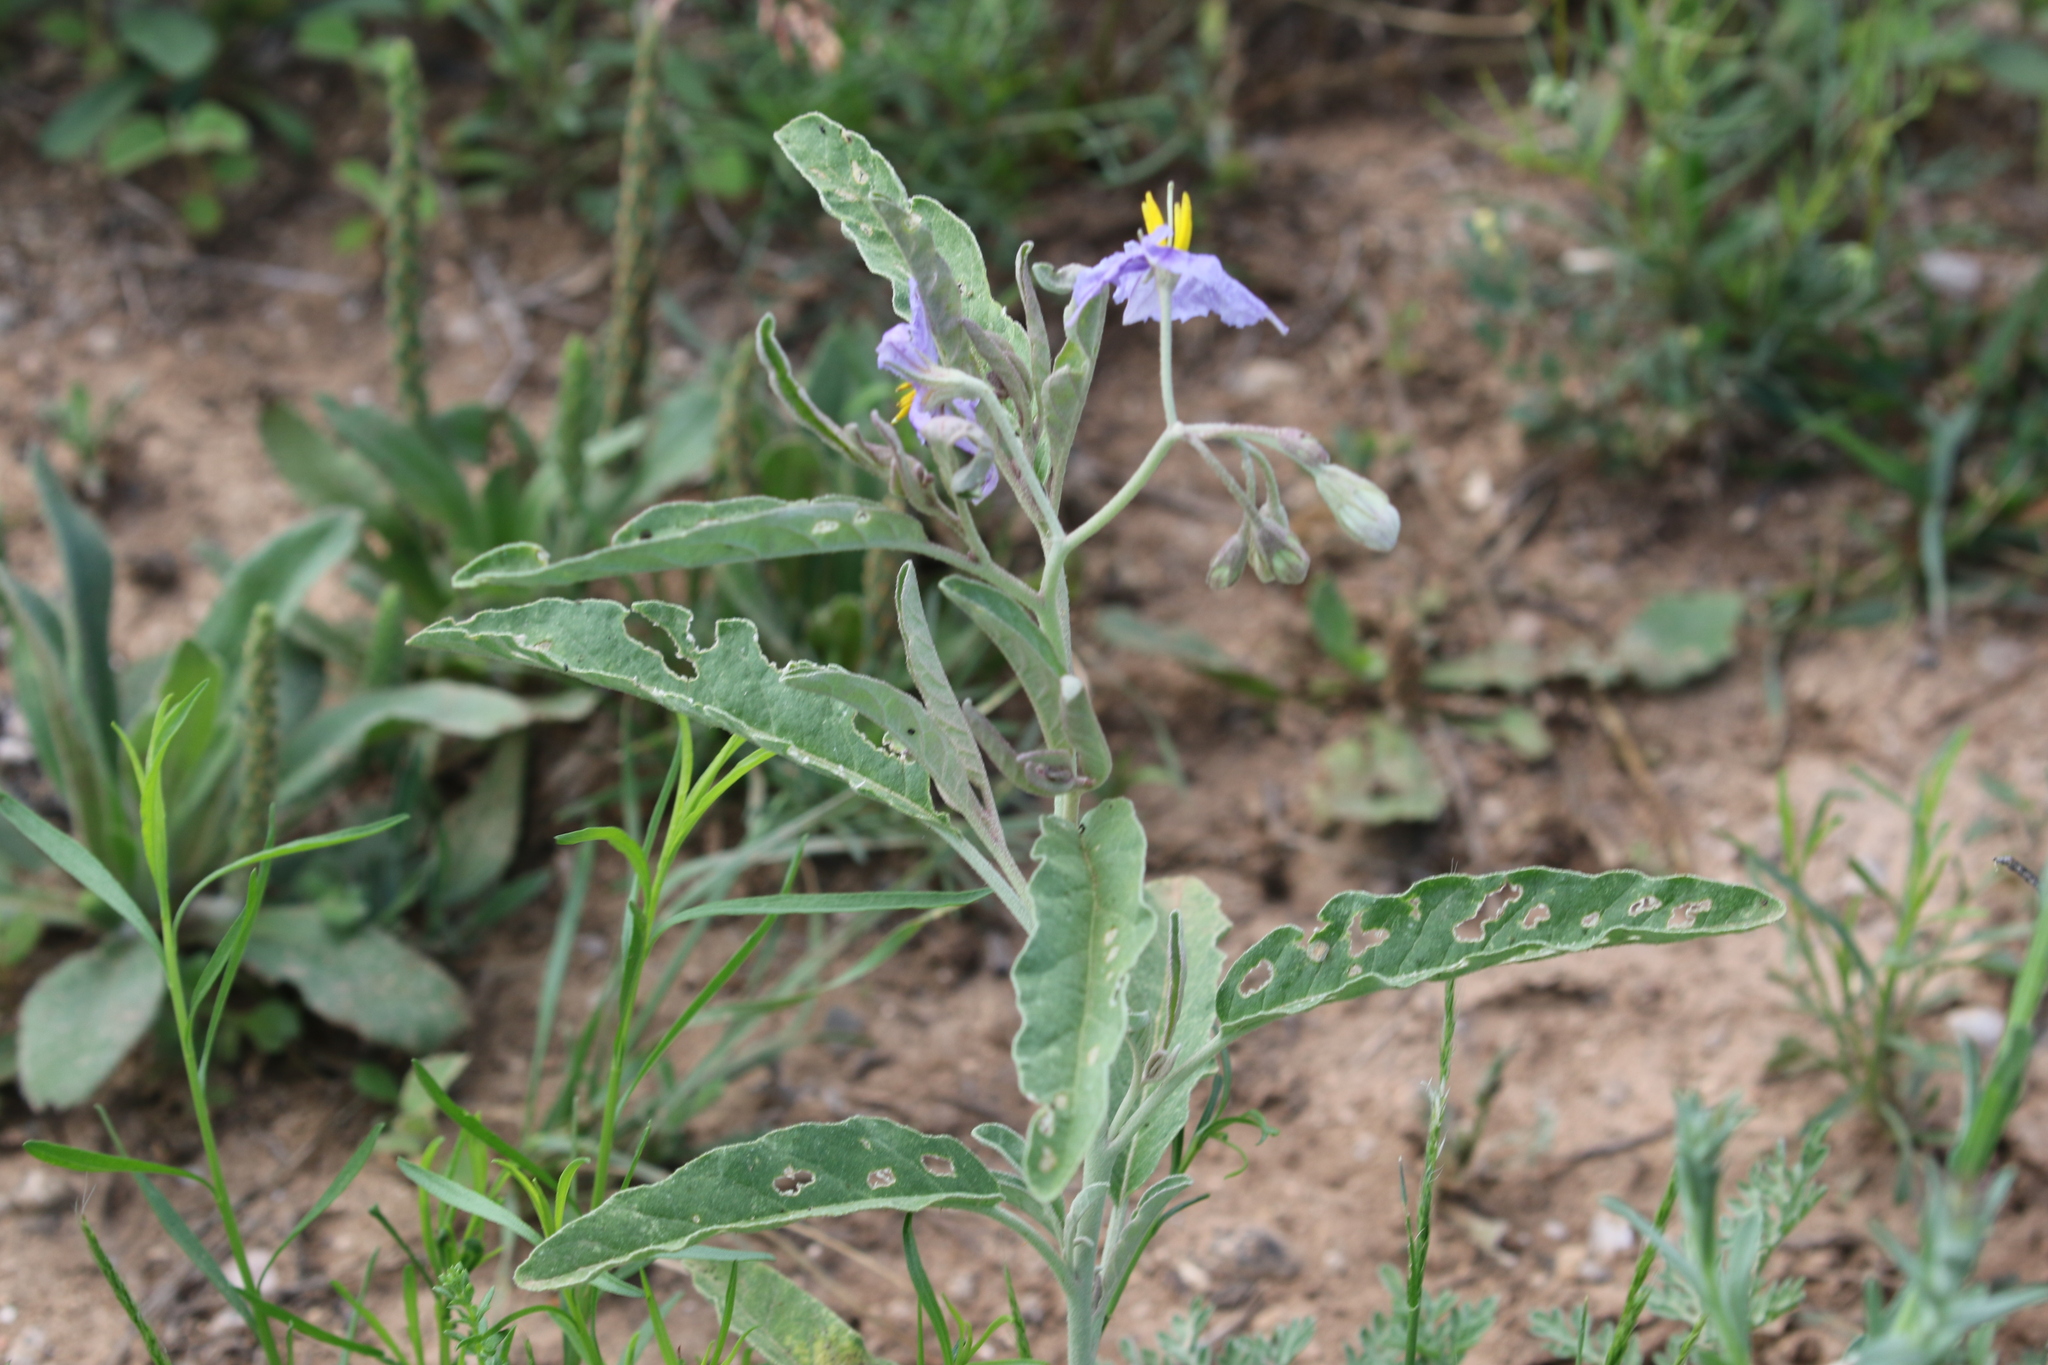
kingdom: Plantae
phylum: Tracheophyta
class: Magnoliopsida
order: Solanales
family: Solanaceae
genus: Solanum
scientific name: Solanum elaeagnifolium
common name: Silverleaf nightshade
